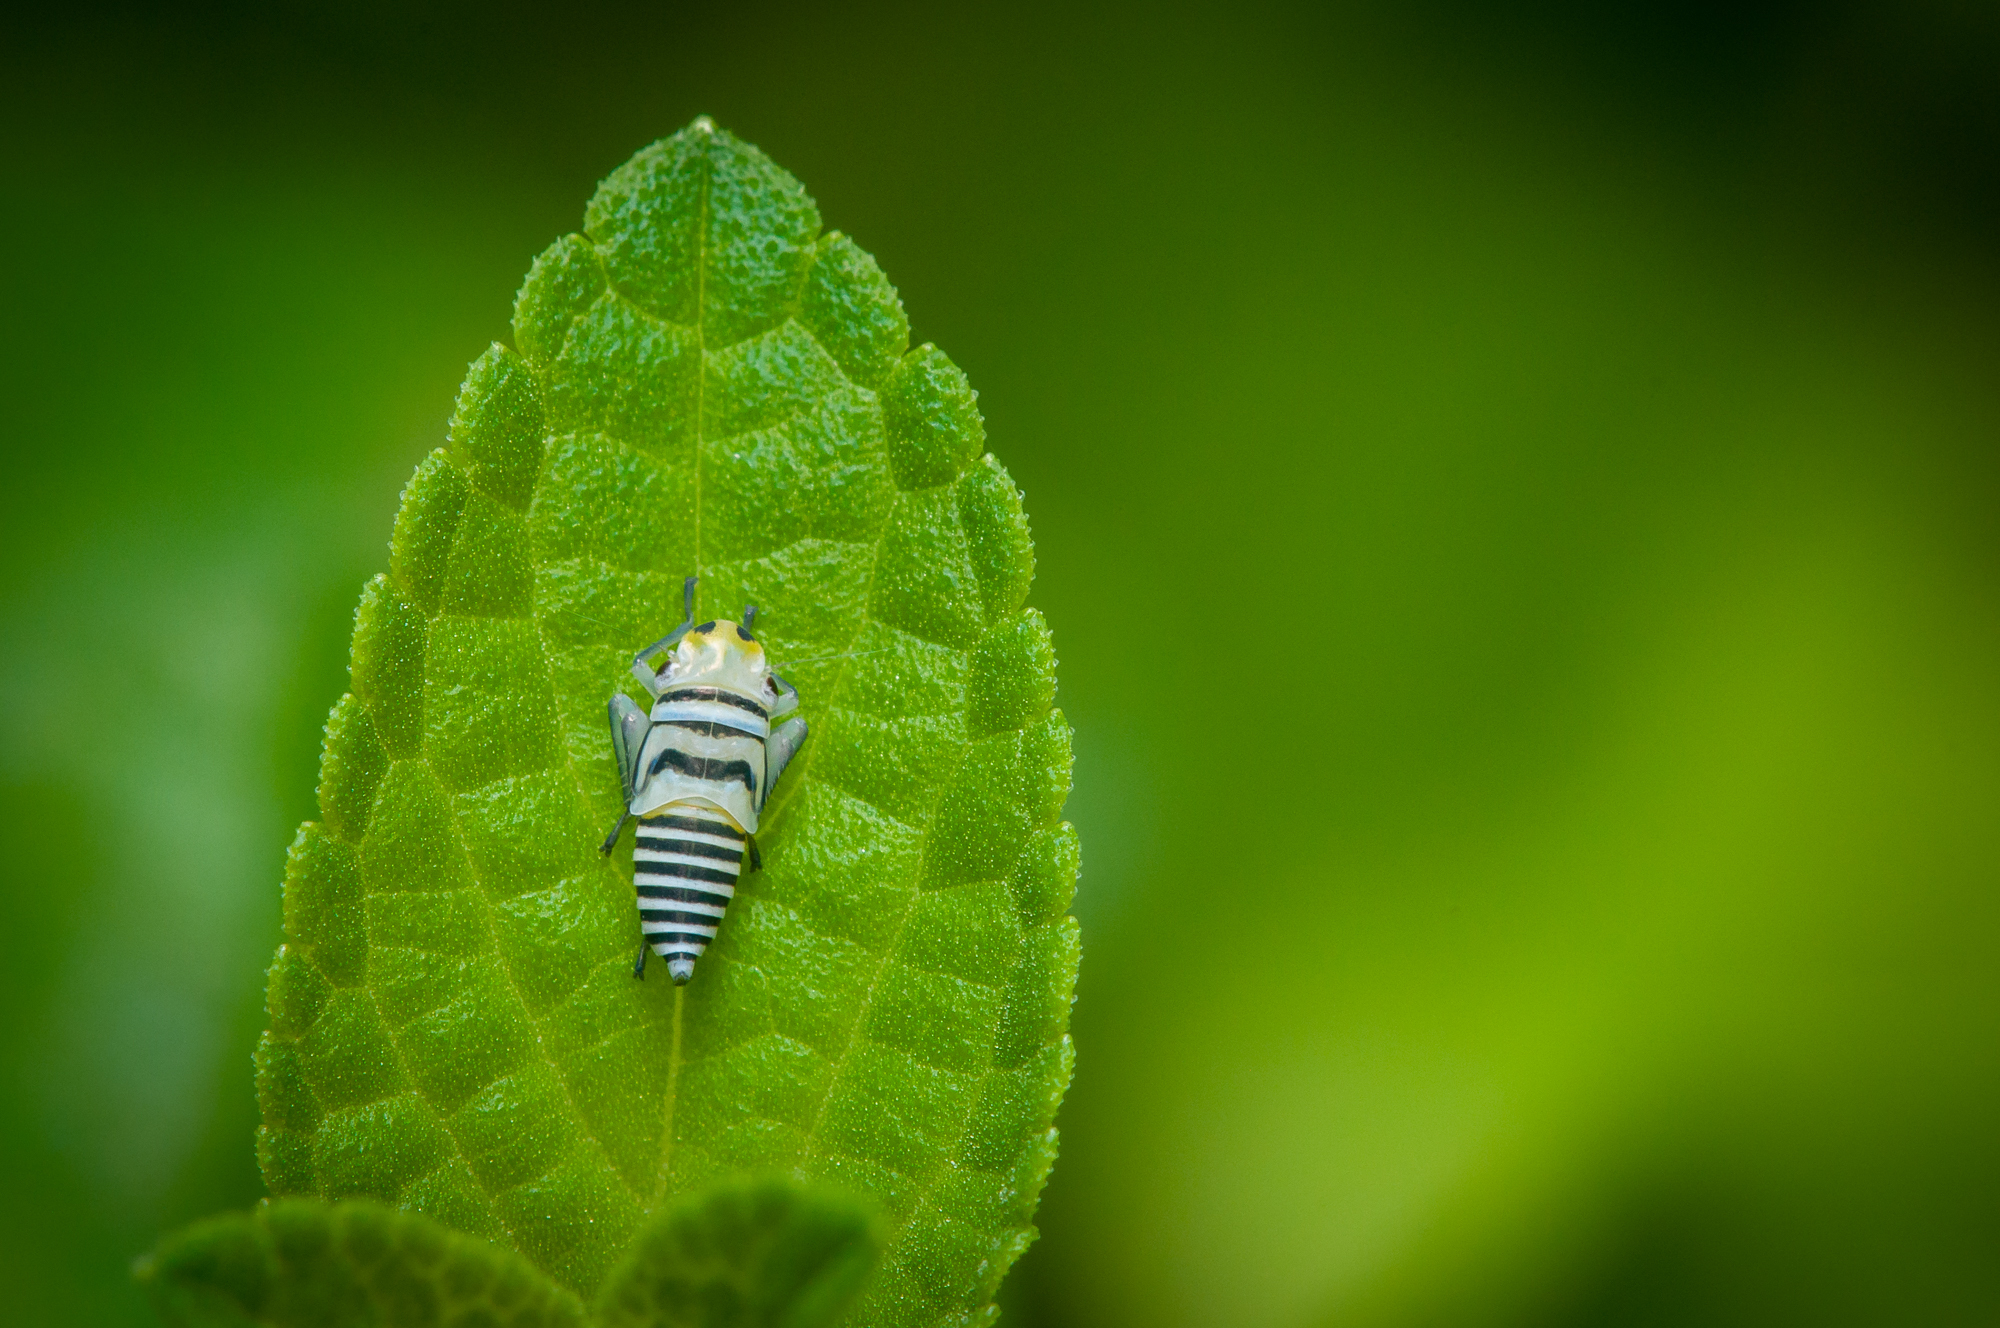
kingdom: Animalia
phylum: Arthropoda
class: Insecta
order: Hemiptera
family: Cicadellidae
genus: Agrosoma
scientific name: Agrosoma placetis
